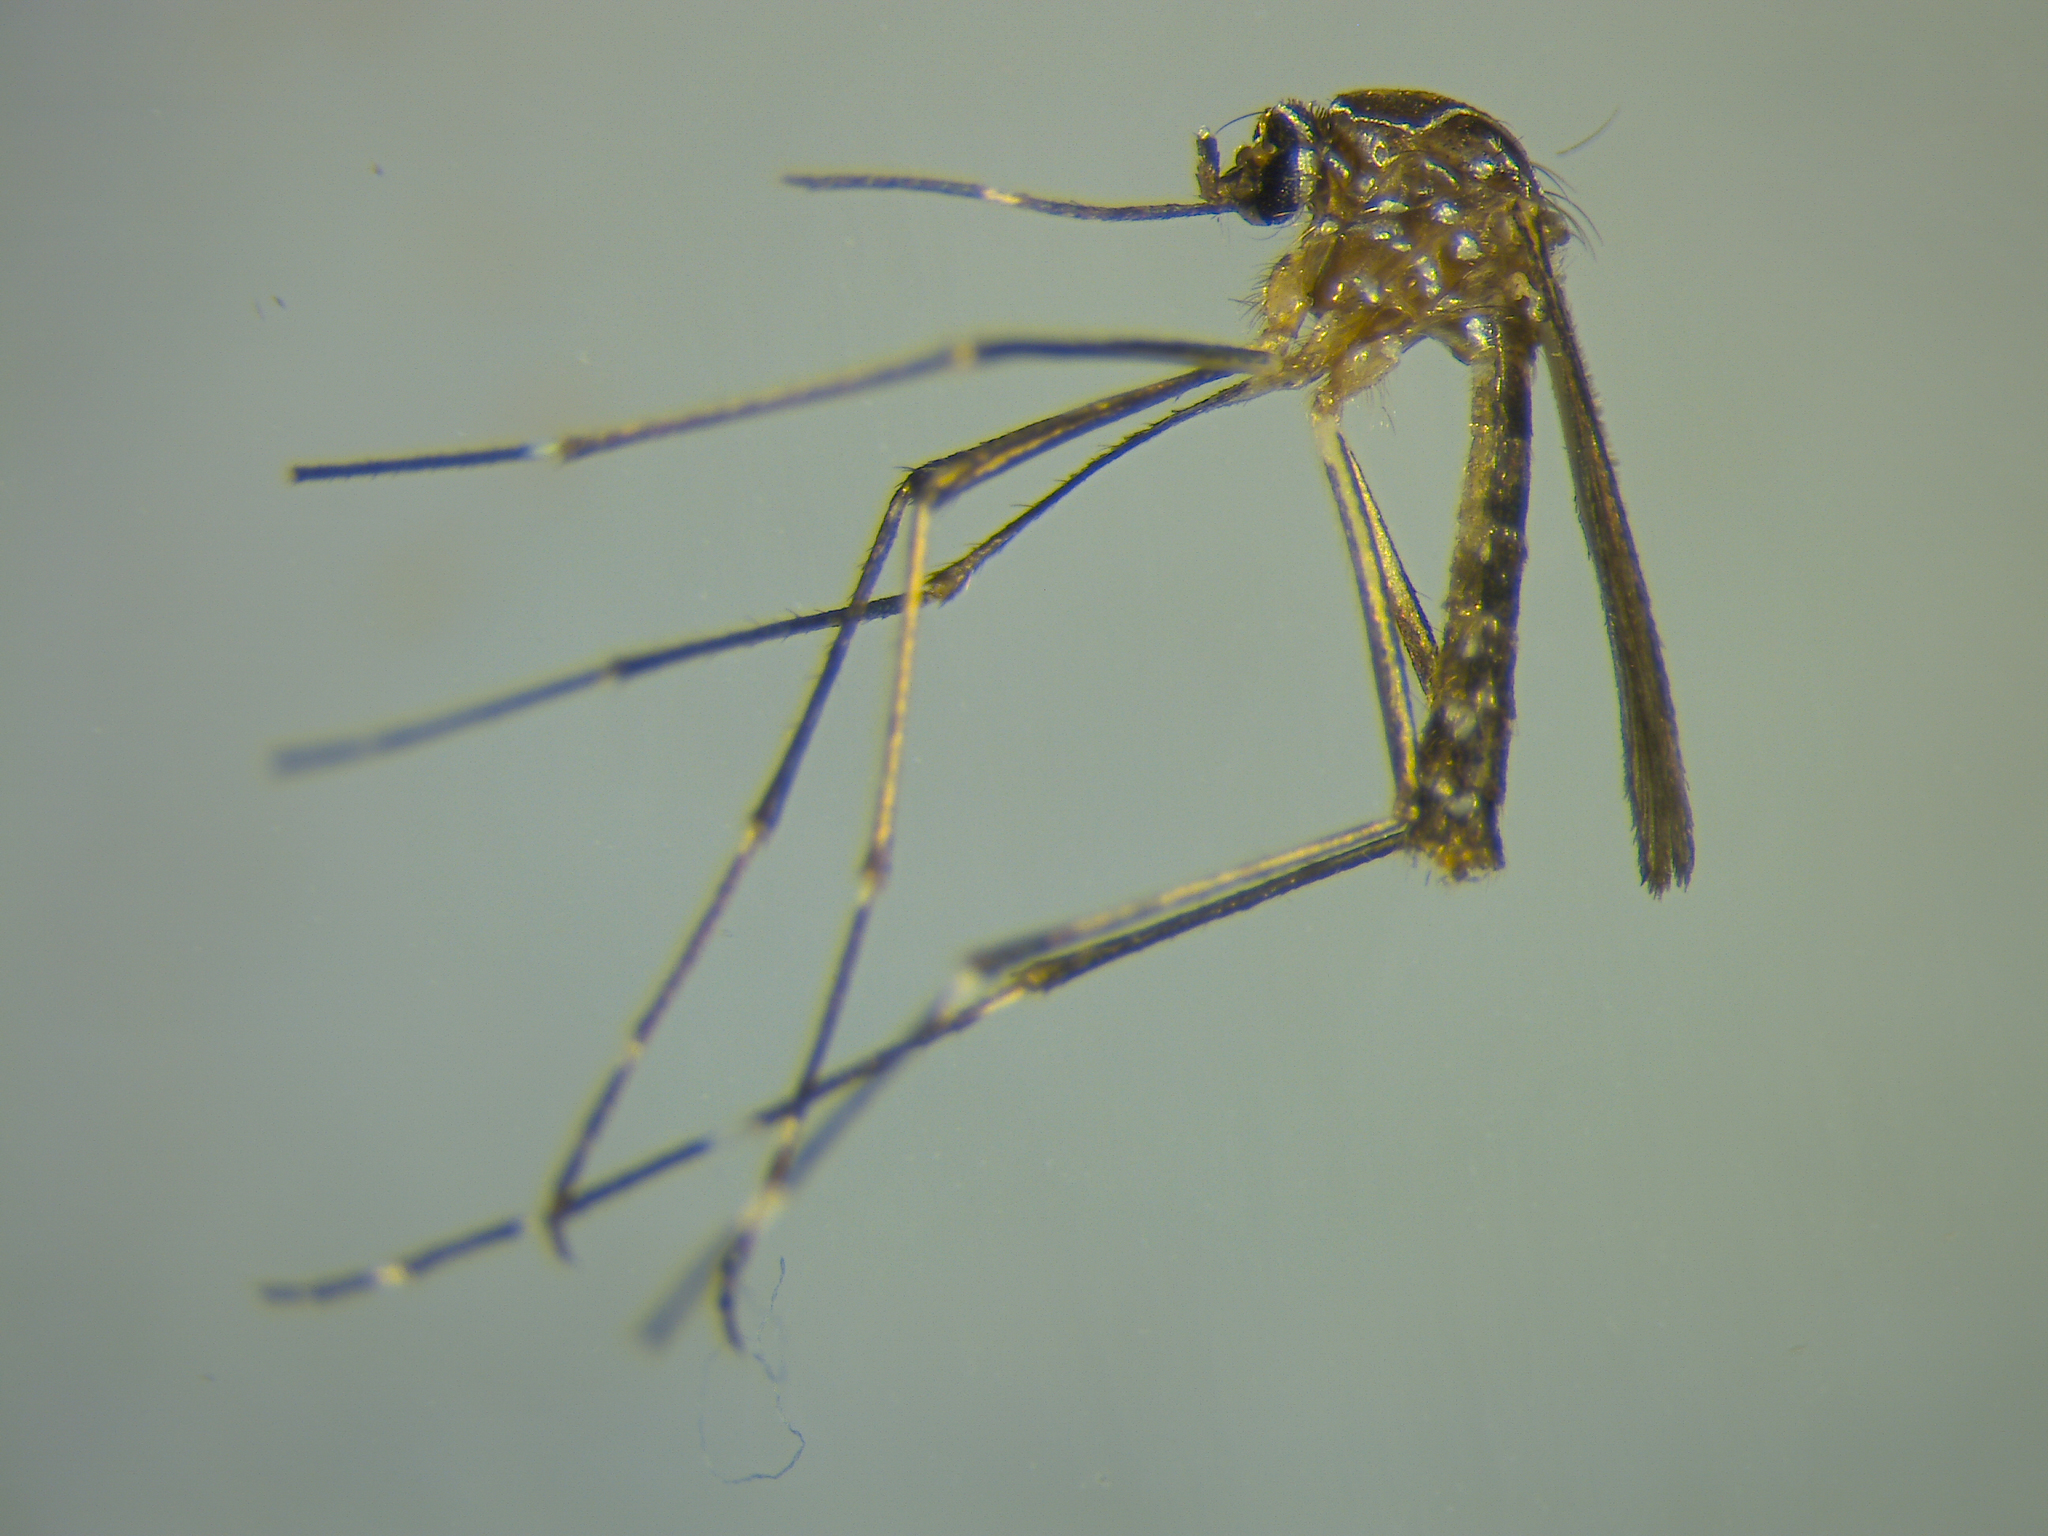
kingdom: Animalia
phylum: Arthropoda
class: Insecta
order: Diptera
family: Culicidae
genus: Aedes
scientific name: Aedes notoscriptus
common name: Australian backyard mosquito
